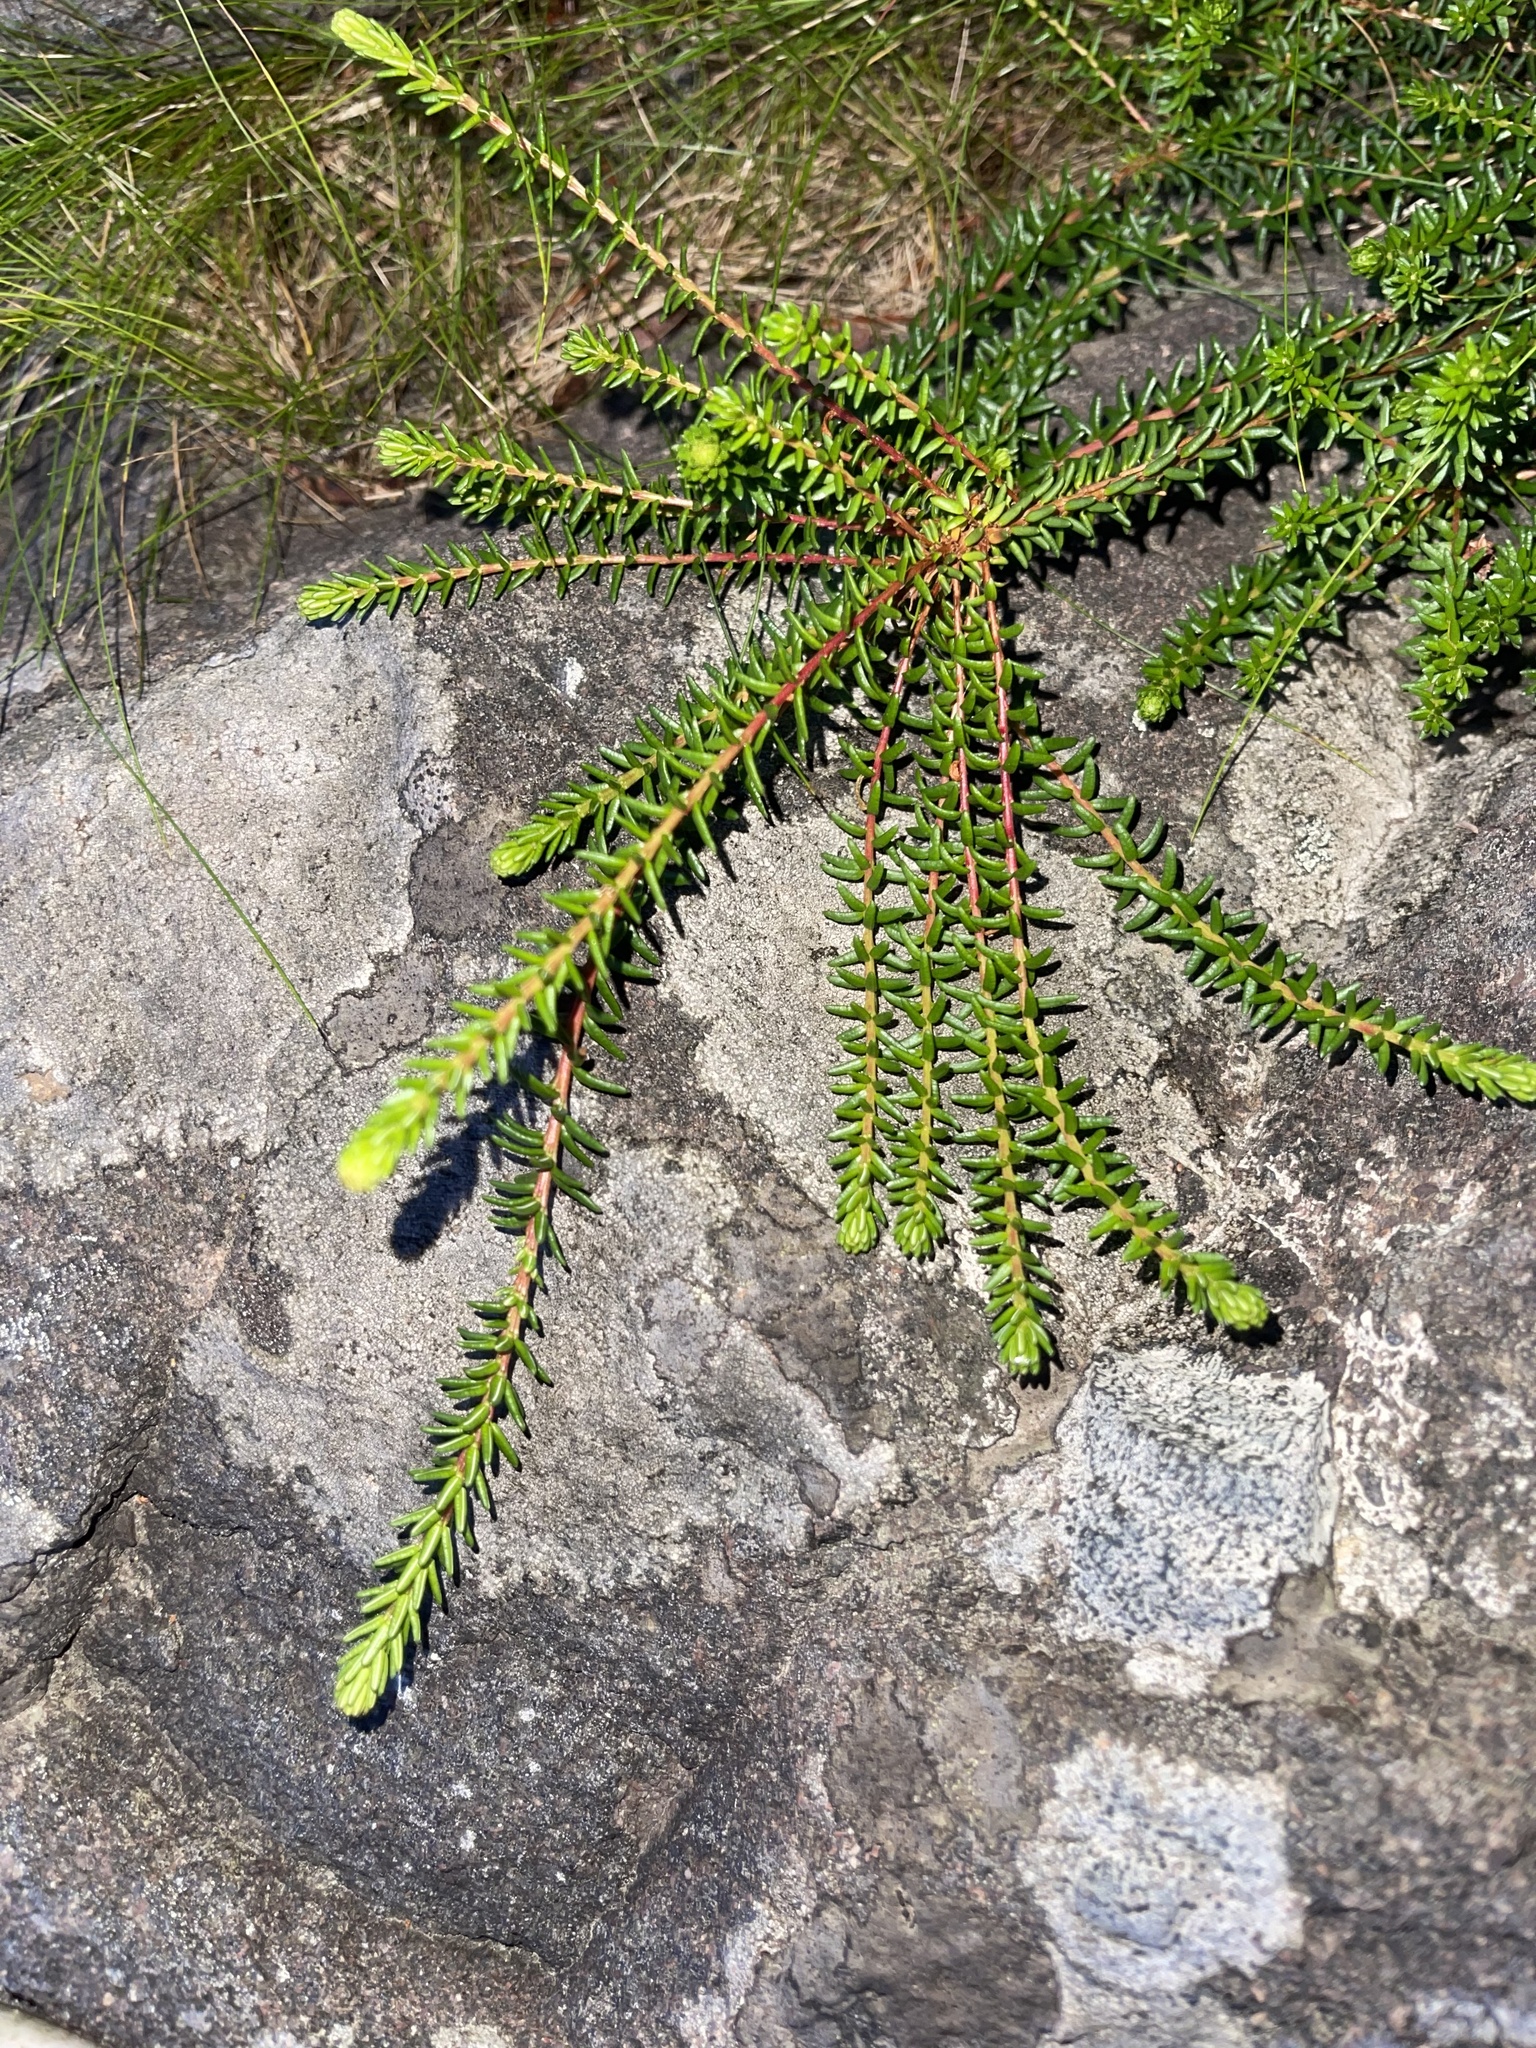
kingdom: Plantae
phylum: Tracheophyta
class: Magnoliopsida
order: Ericales
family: Ericaceae
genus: Empetrum
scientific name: Empetrum nigrum
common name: Black crowberry
